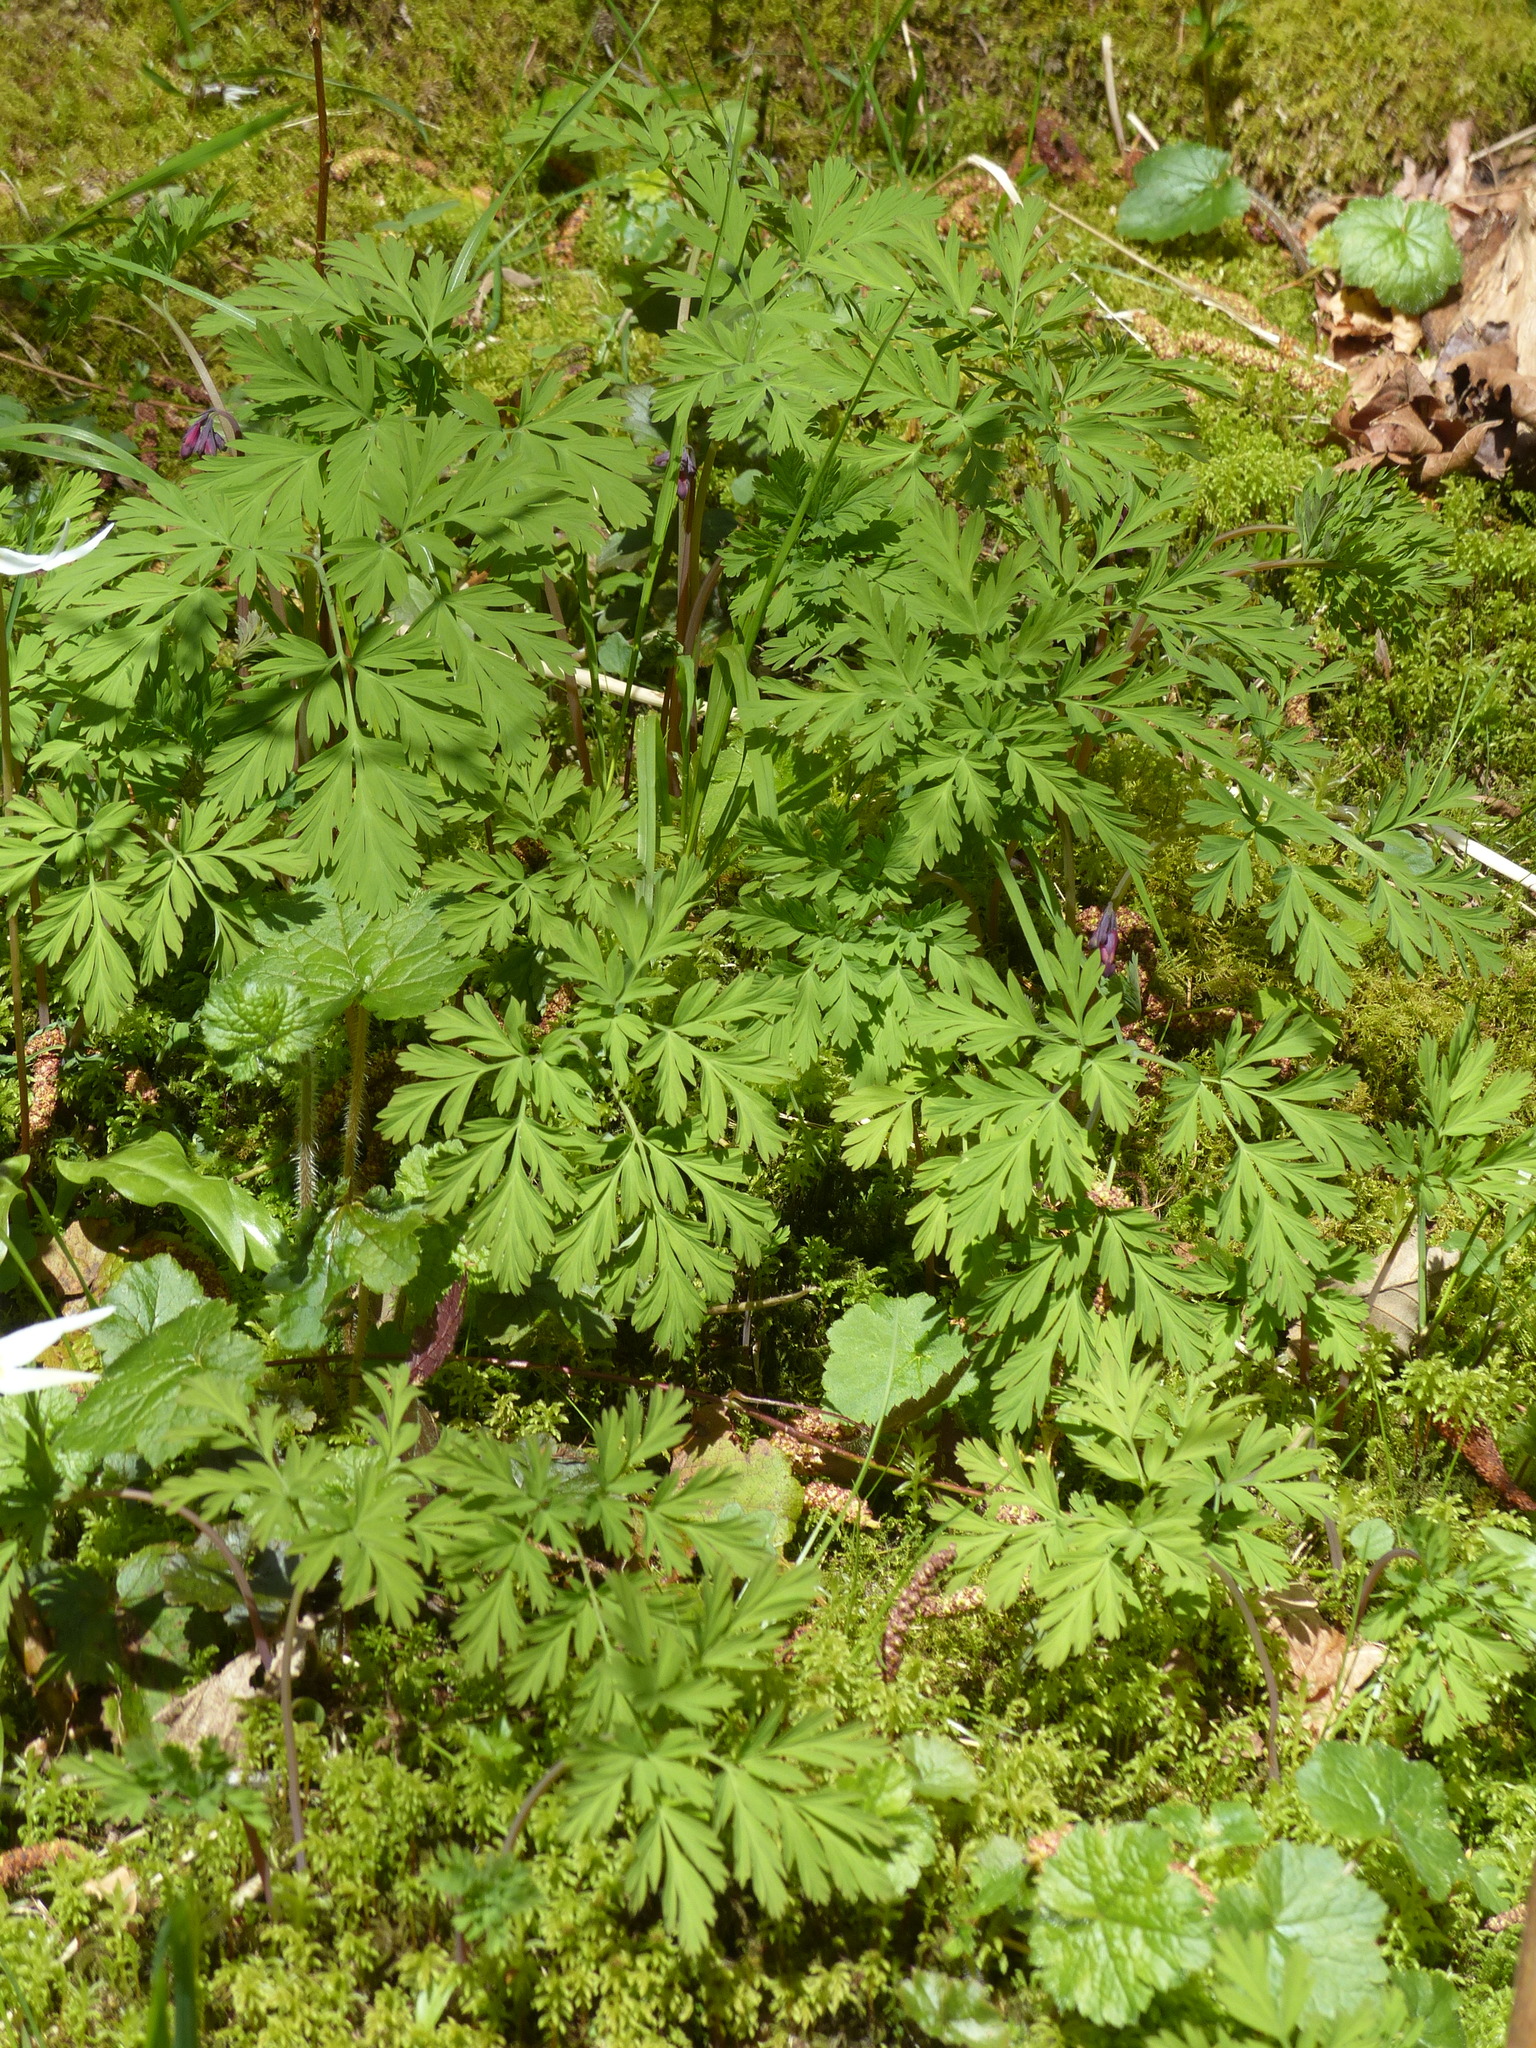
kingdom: Plantae
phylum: Tracheophyta
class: Magnoliopsida
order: Ranunculales
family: Papaveraceae
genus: Dicentra
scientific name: Dicentra formosa
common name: Bleeding-heart
